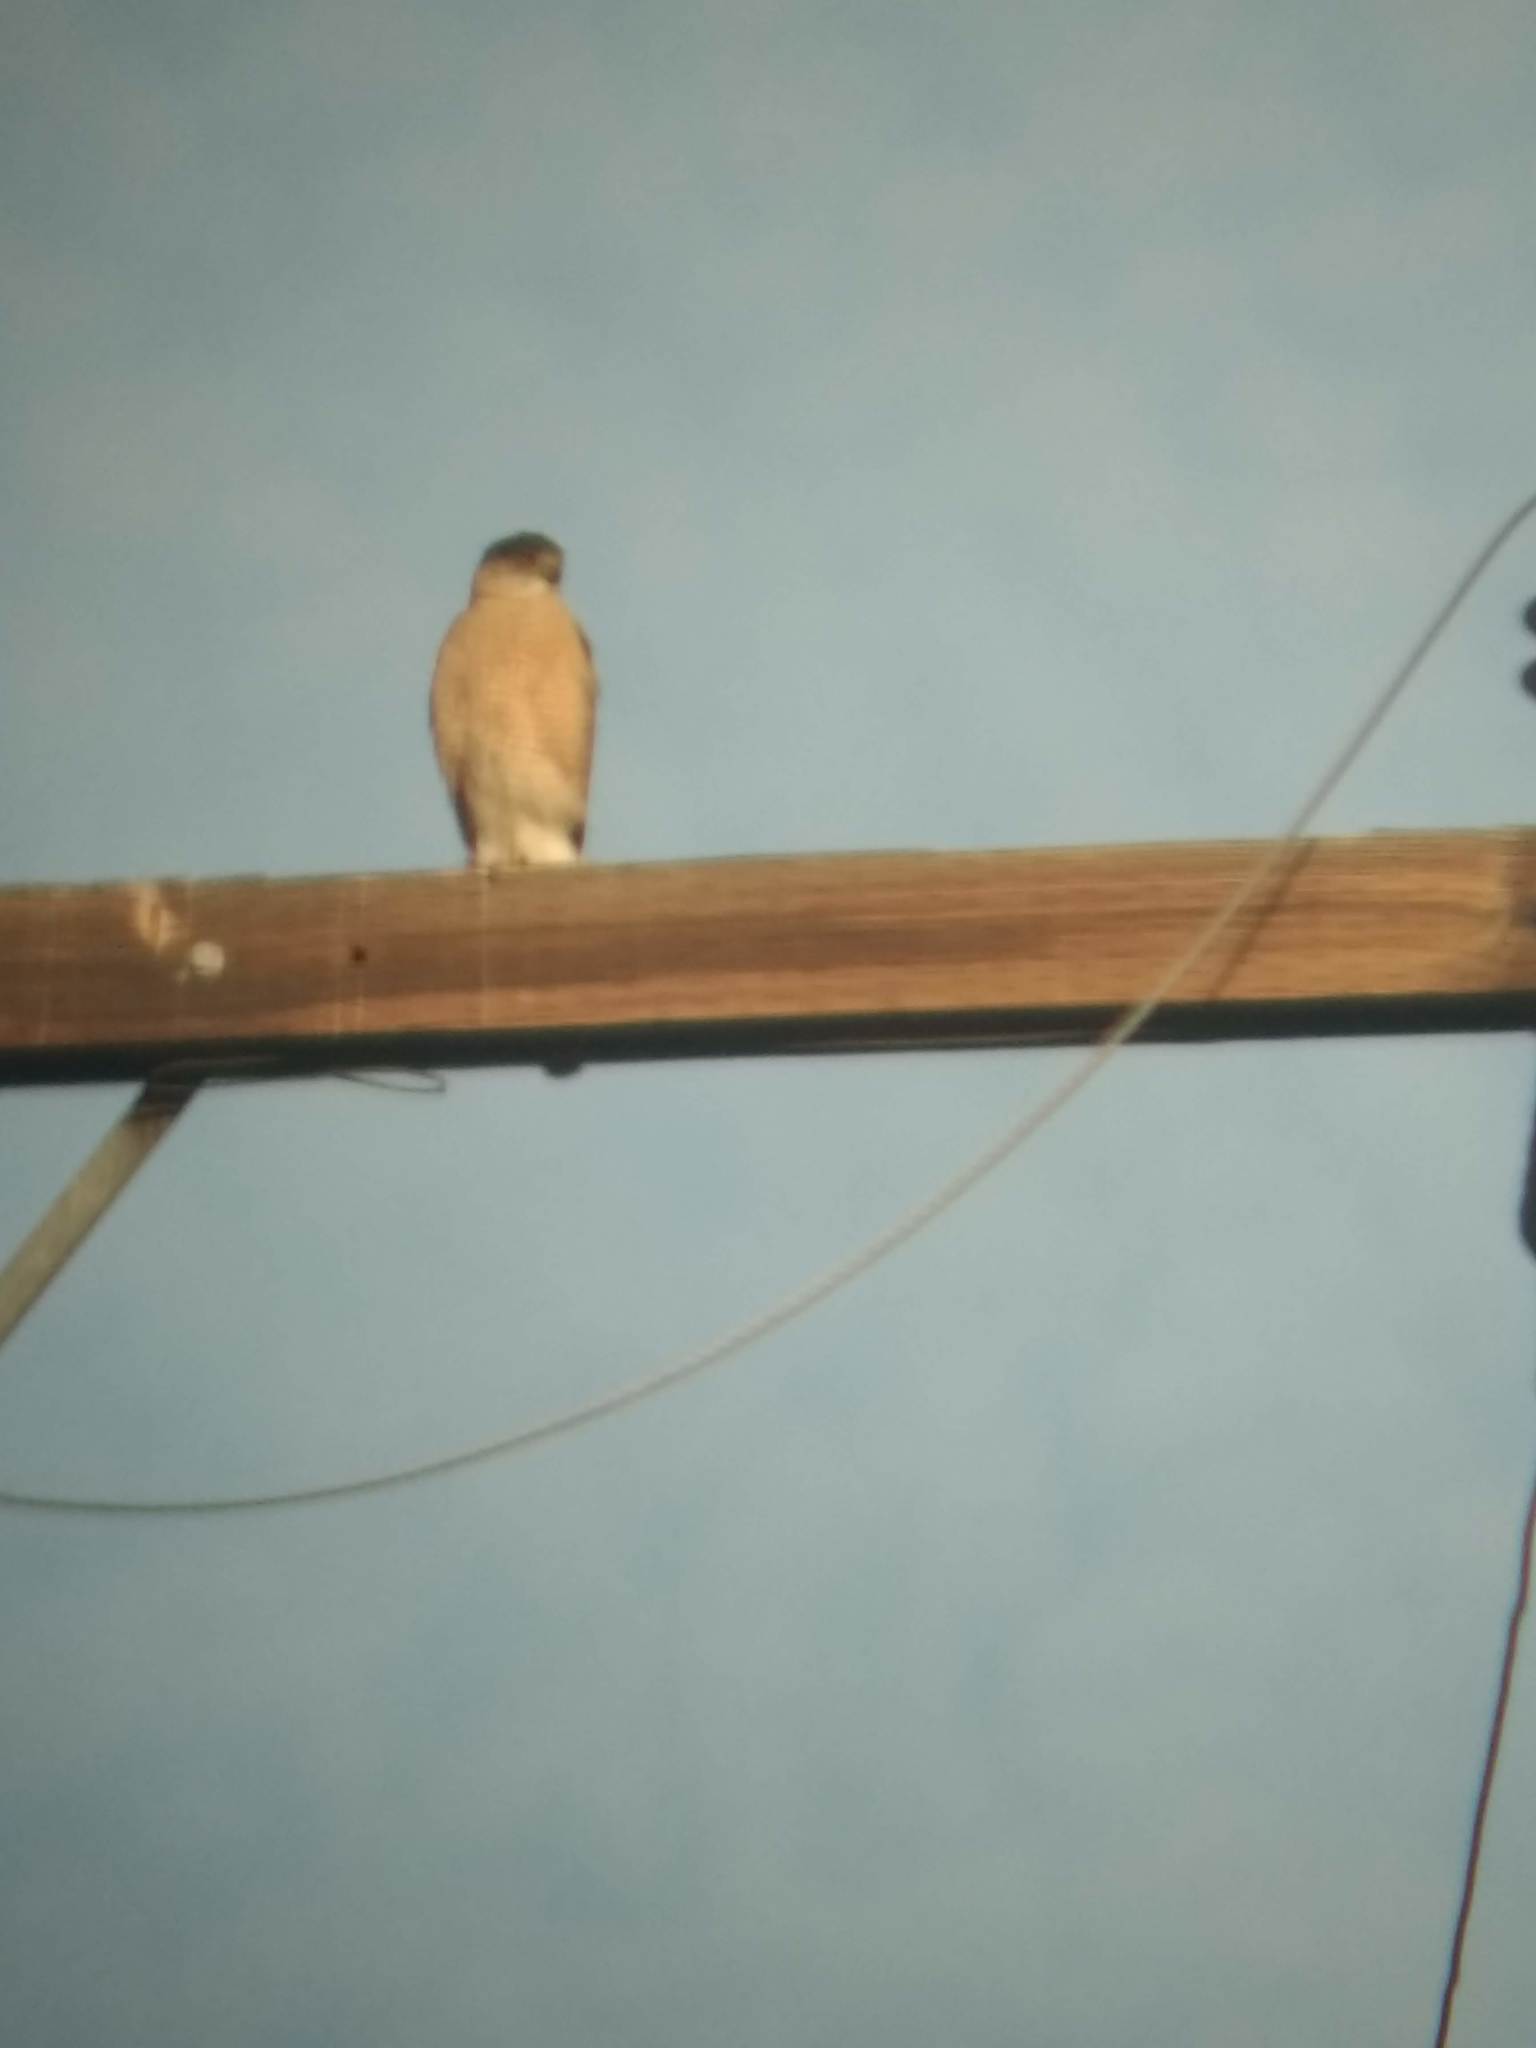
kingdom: Animalia
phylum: Chordata
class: Aves
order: Accipitriformes
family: Accipitridae
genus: Accipiter
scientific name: Accipiter cooperii
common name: Cooper's hawk
